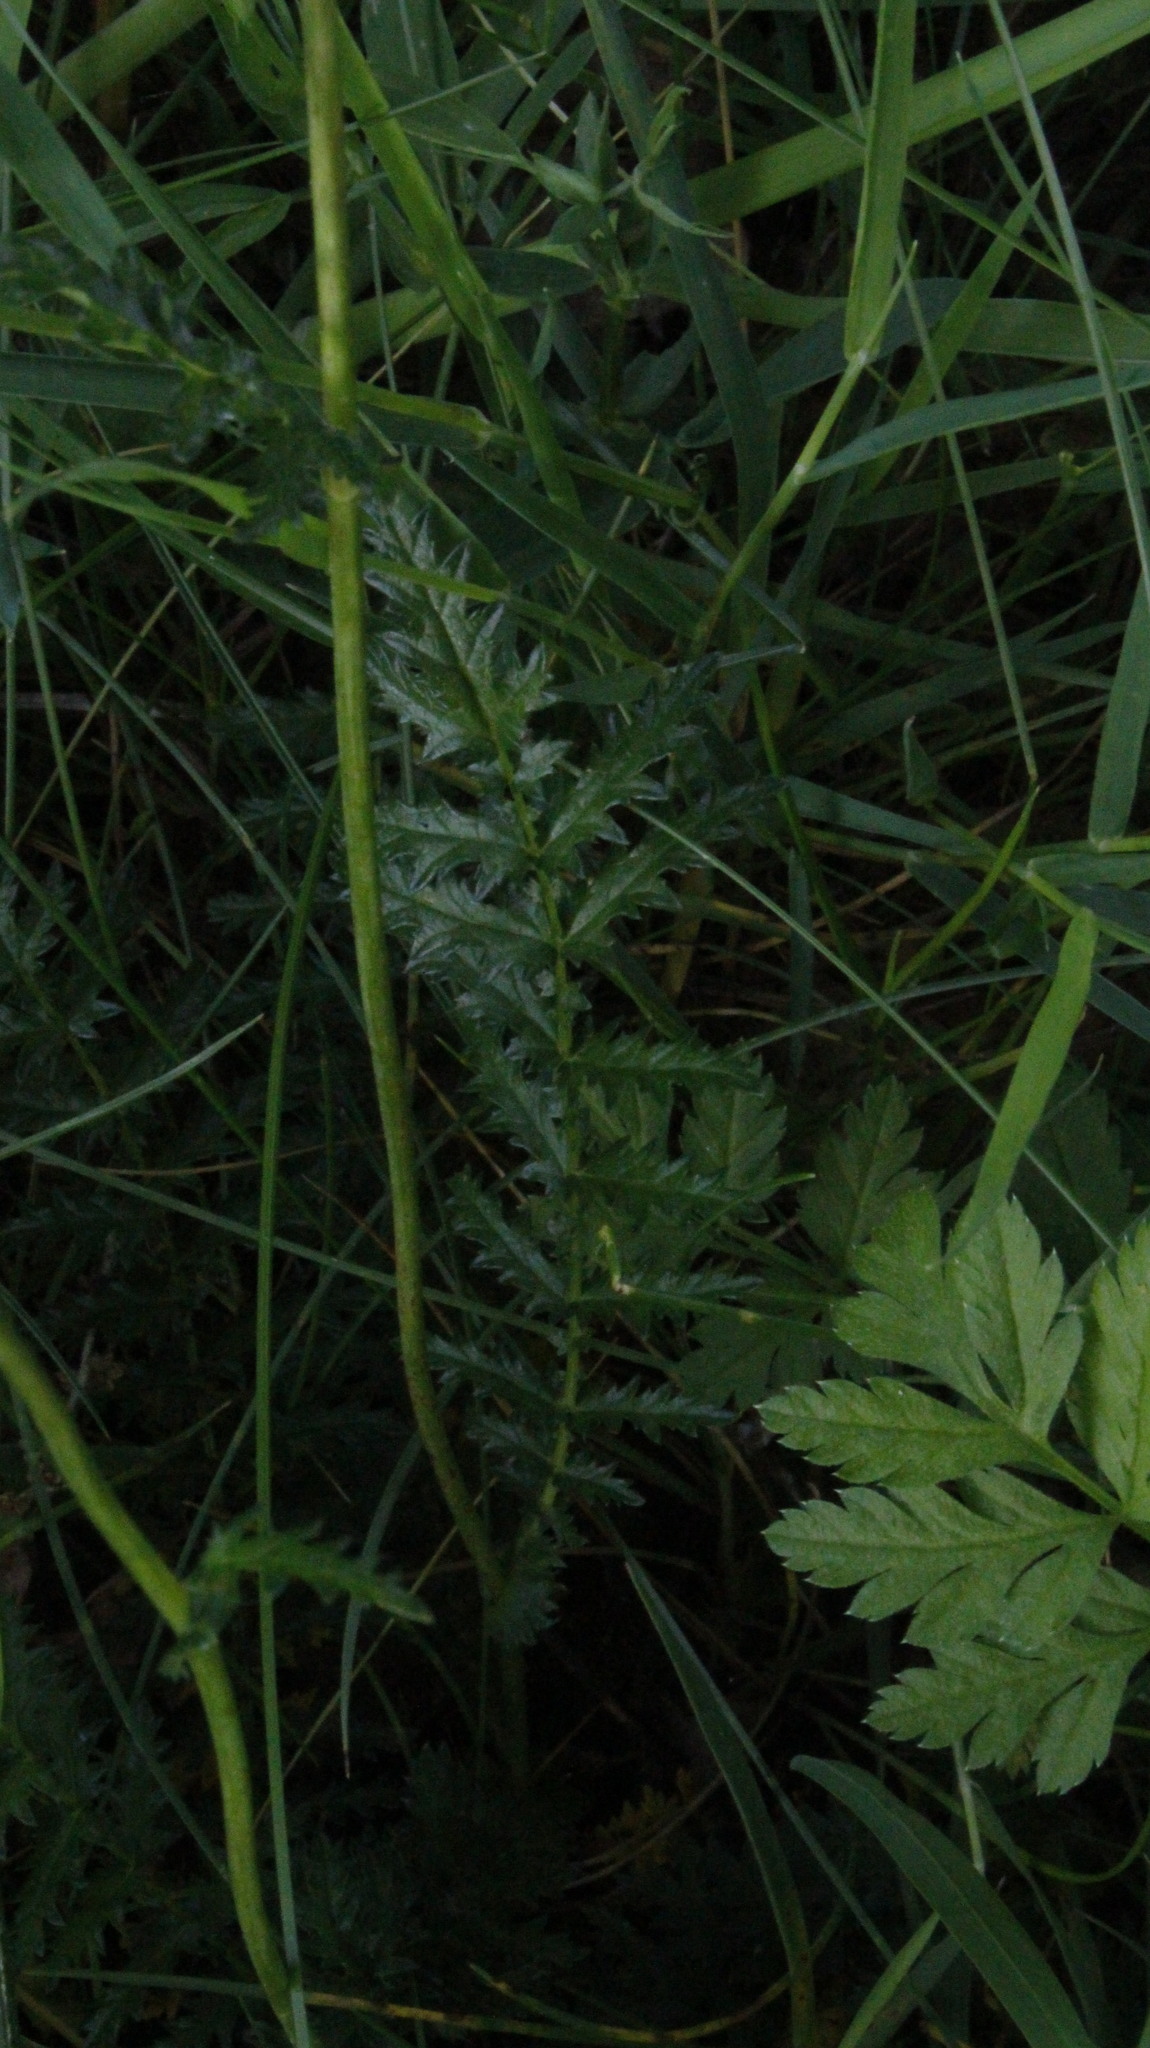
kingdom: Plantae
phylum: Tracheophyta
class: Magnoliopsida
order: Rosales
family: Rosaceae
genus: Filipendula
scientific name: Filipendula vulgaris
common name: Dropwort
